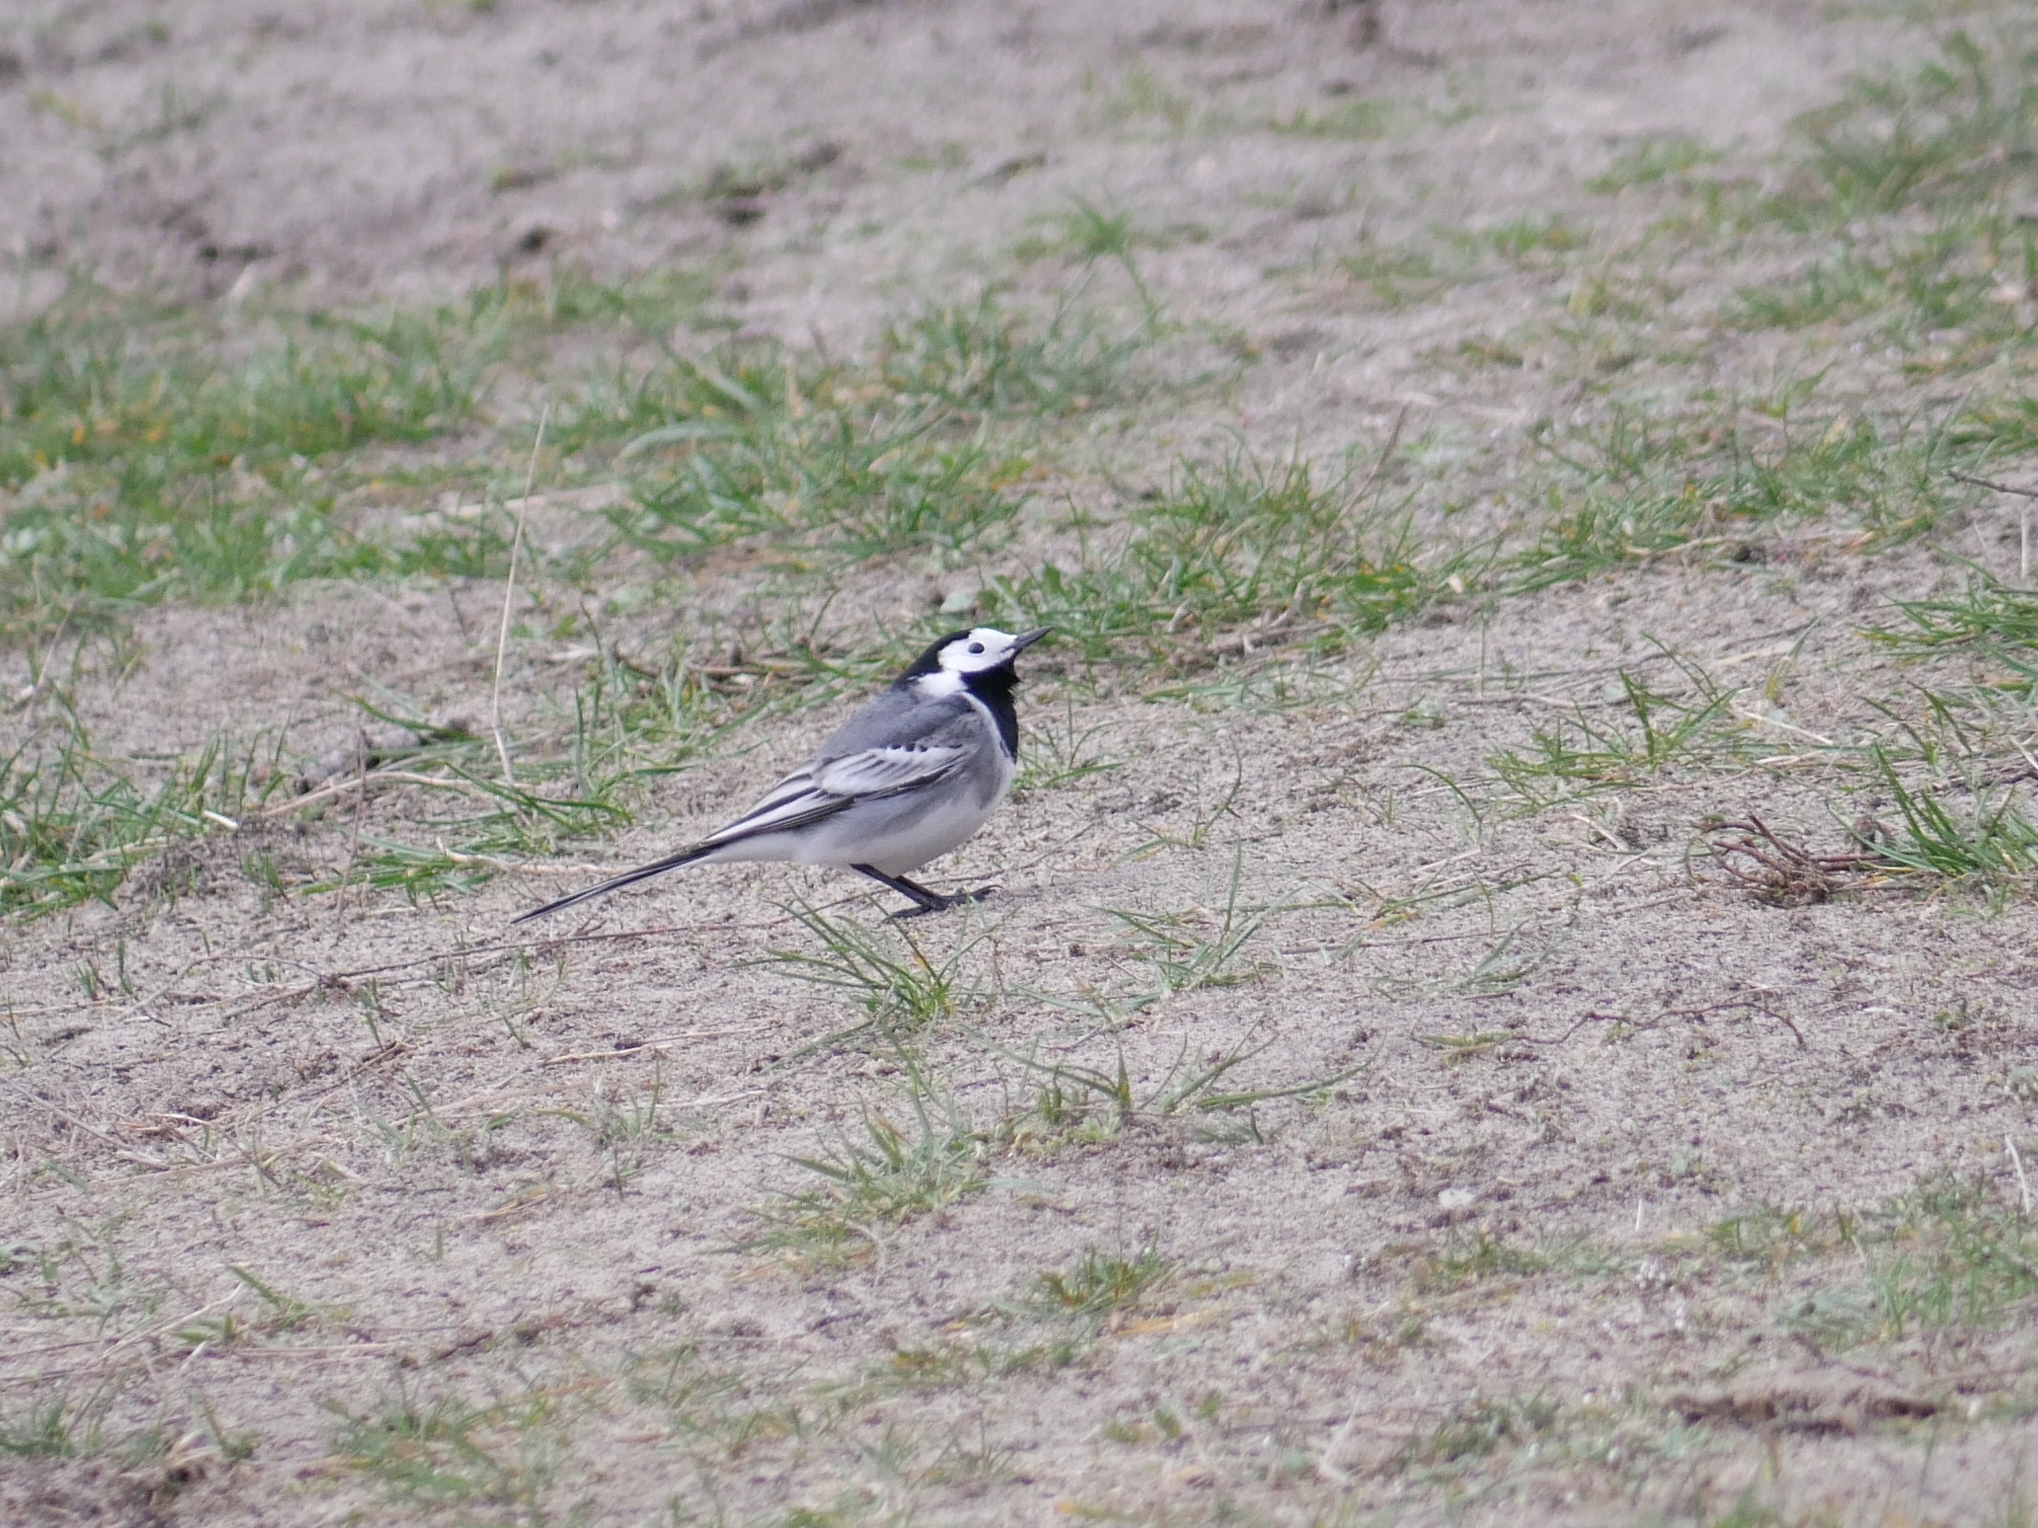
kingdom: Animalia
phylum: Chordata
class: Aves
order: Passeriformes
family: Motacillidae
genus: Motacilla
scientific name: Motacilla alba
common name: White wagtail
